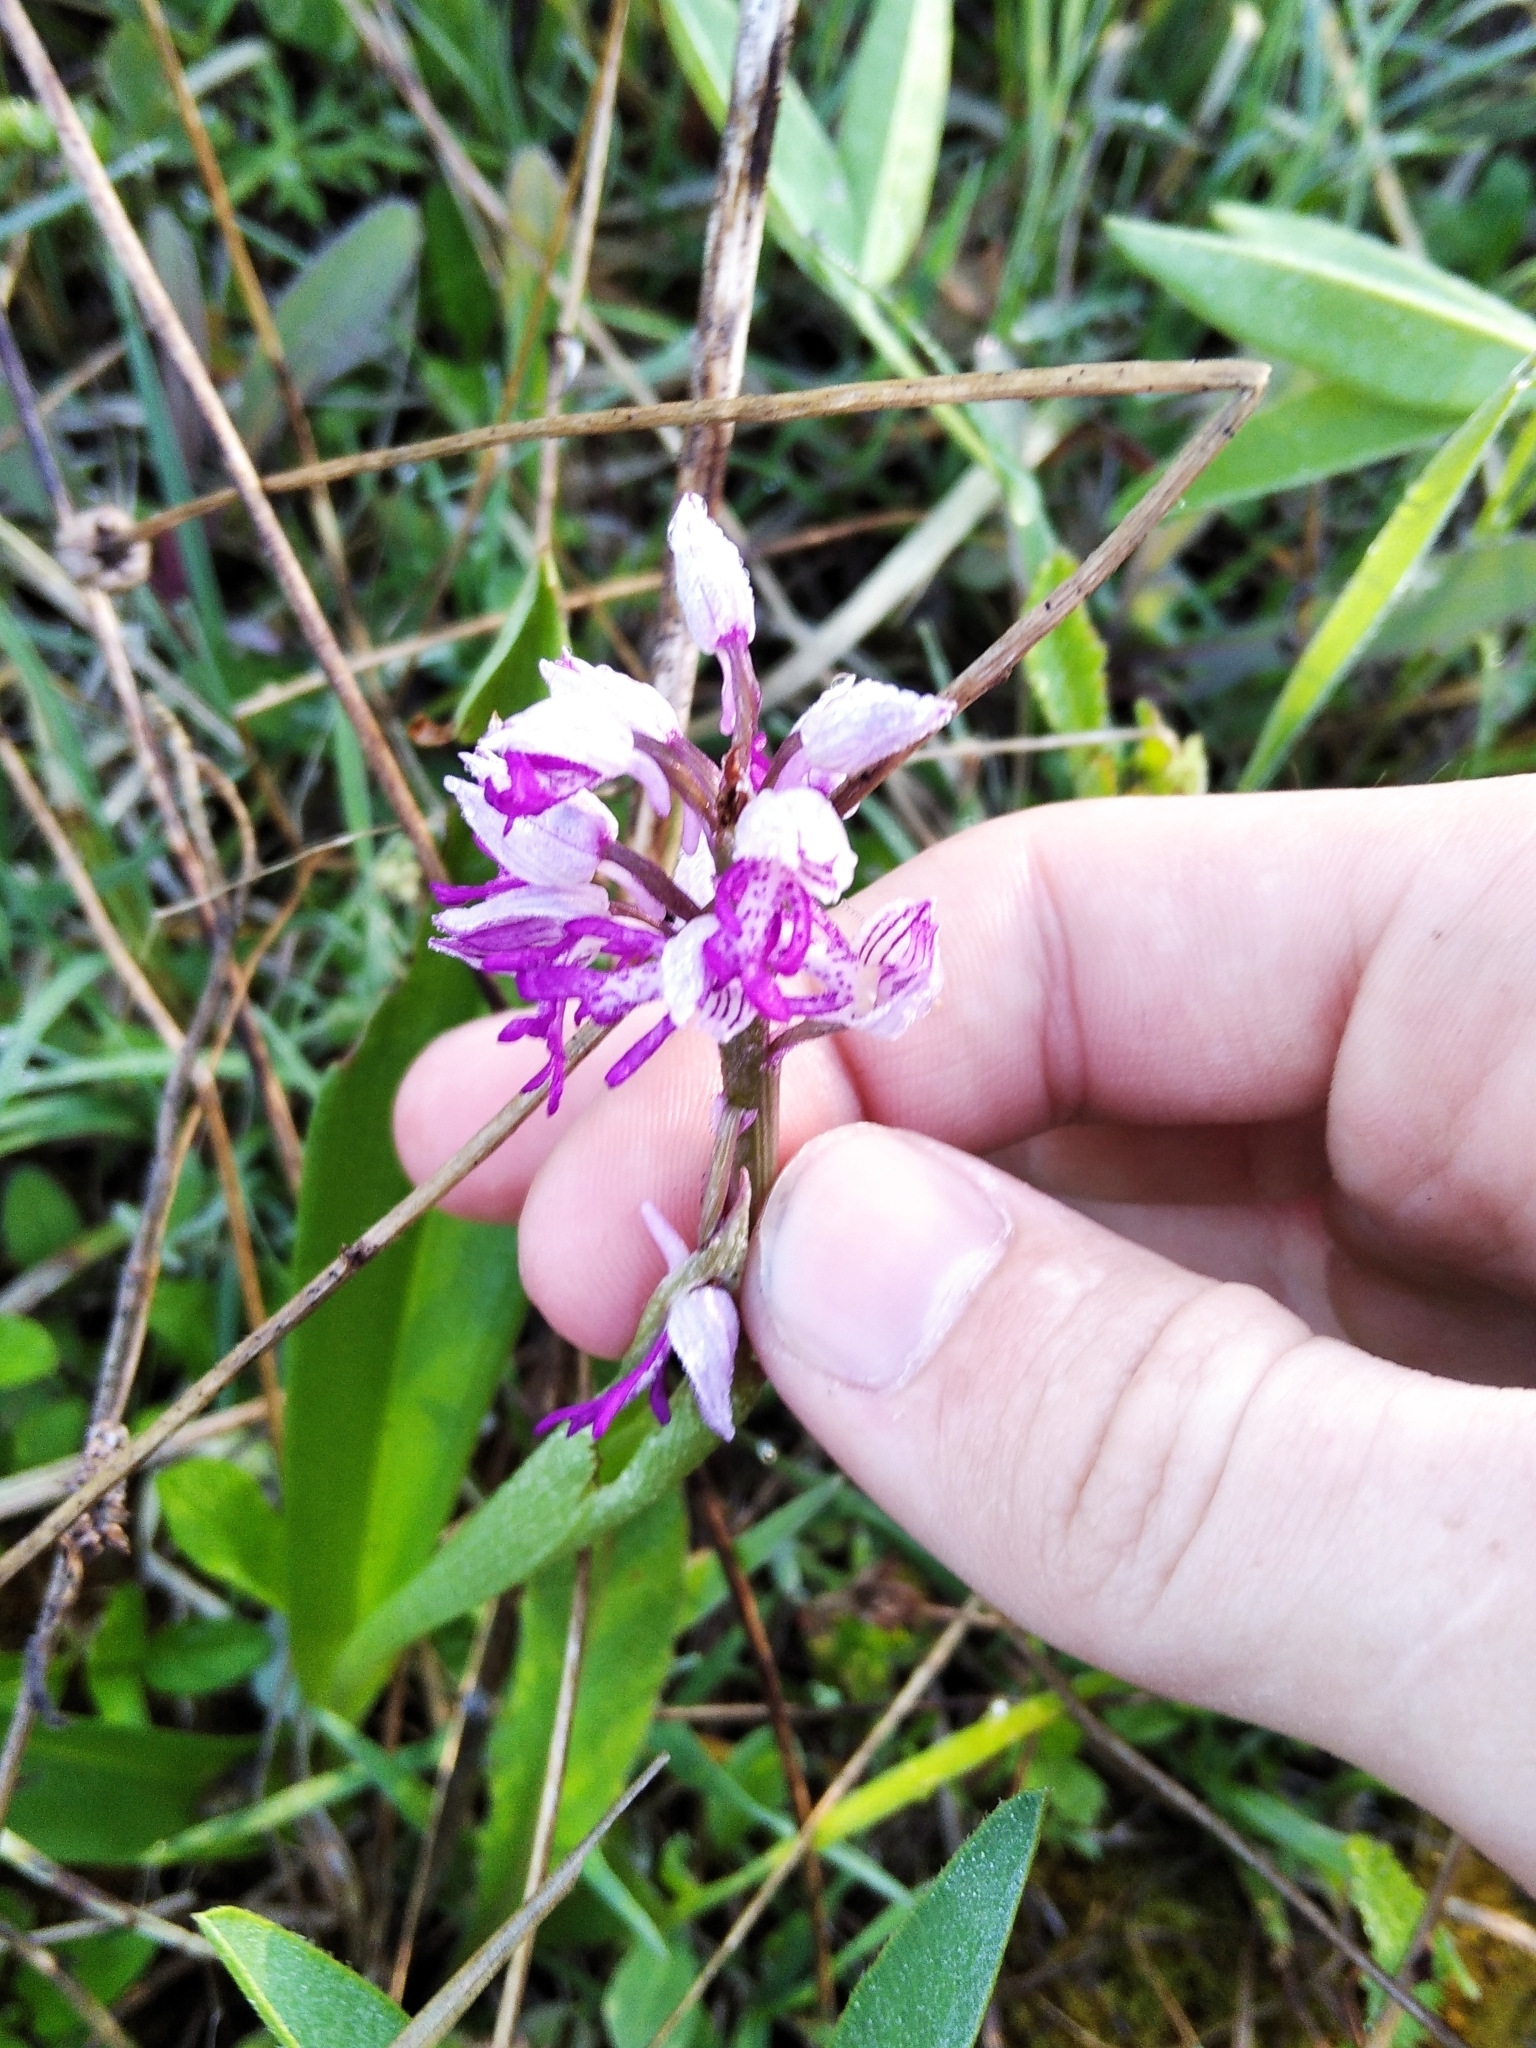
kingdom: Plantae
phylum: Tracheophyta
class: Liliopsida
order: Asparagales
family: Orchidaceae
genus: Orchis
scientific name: Orchis militaris
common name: Military orchid
